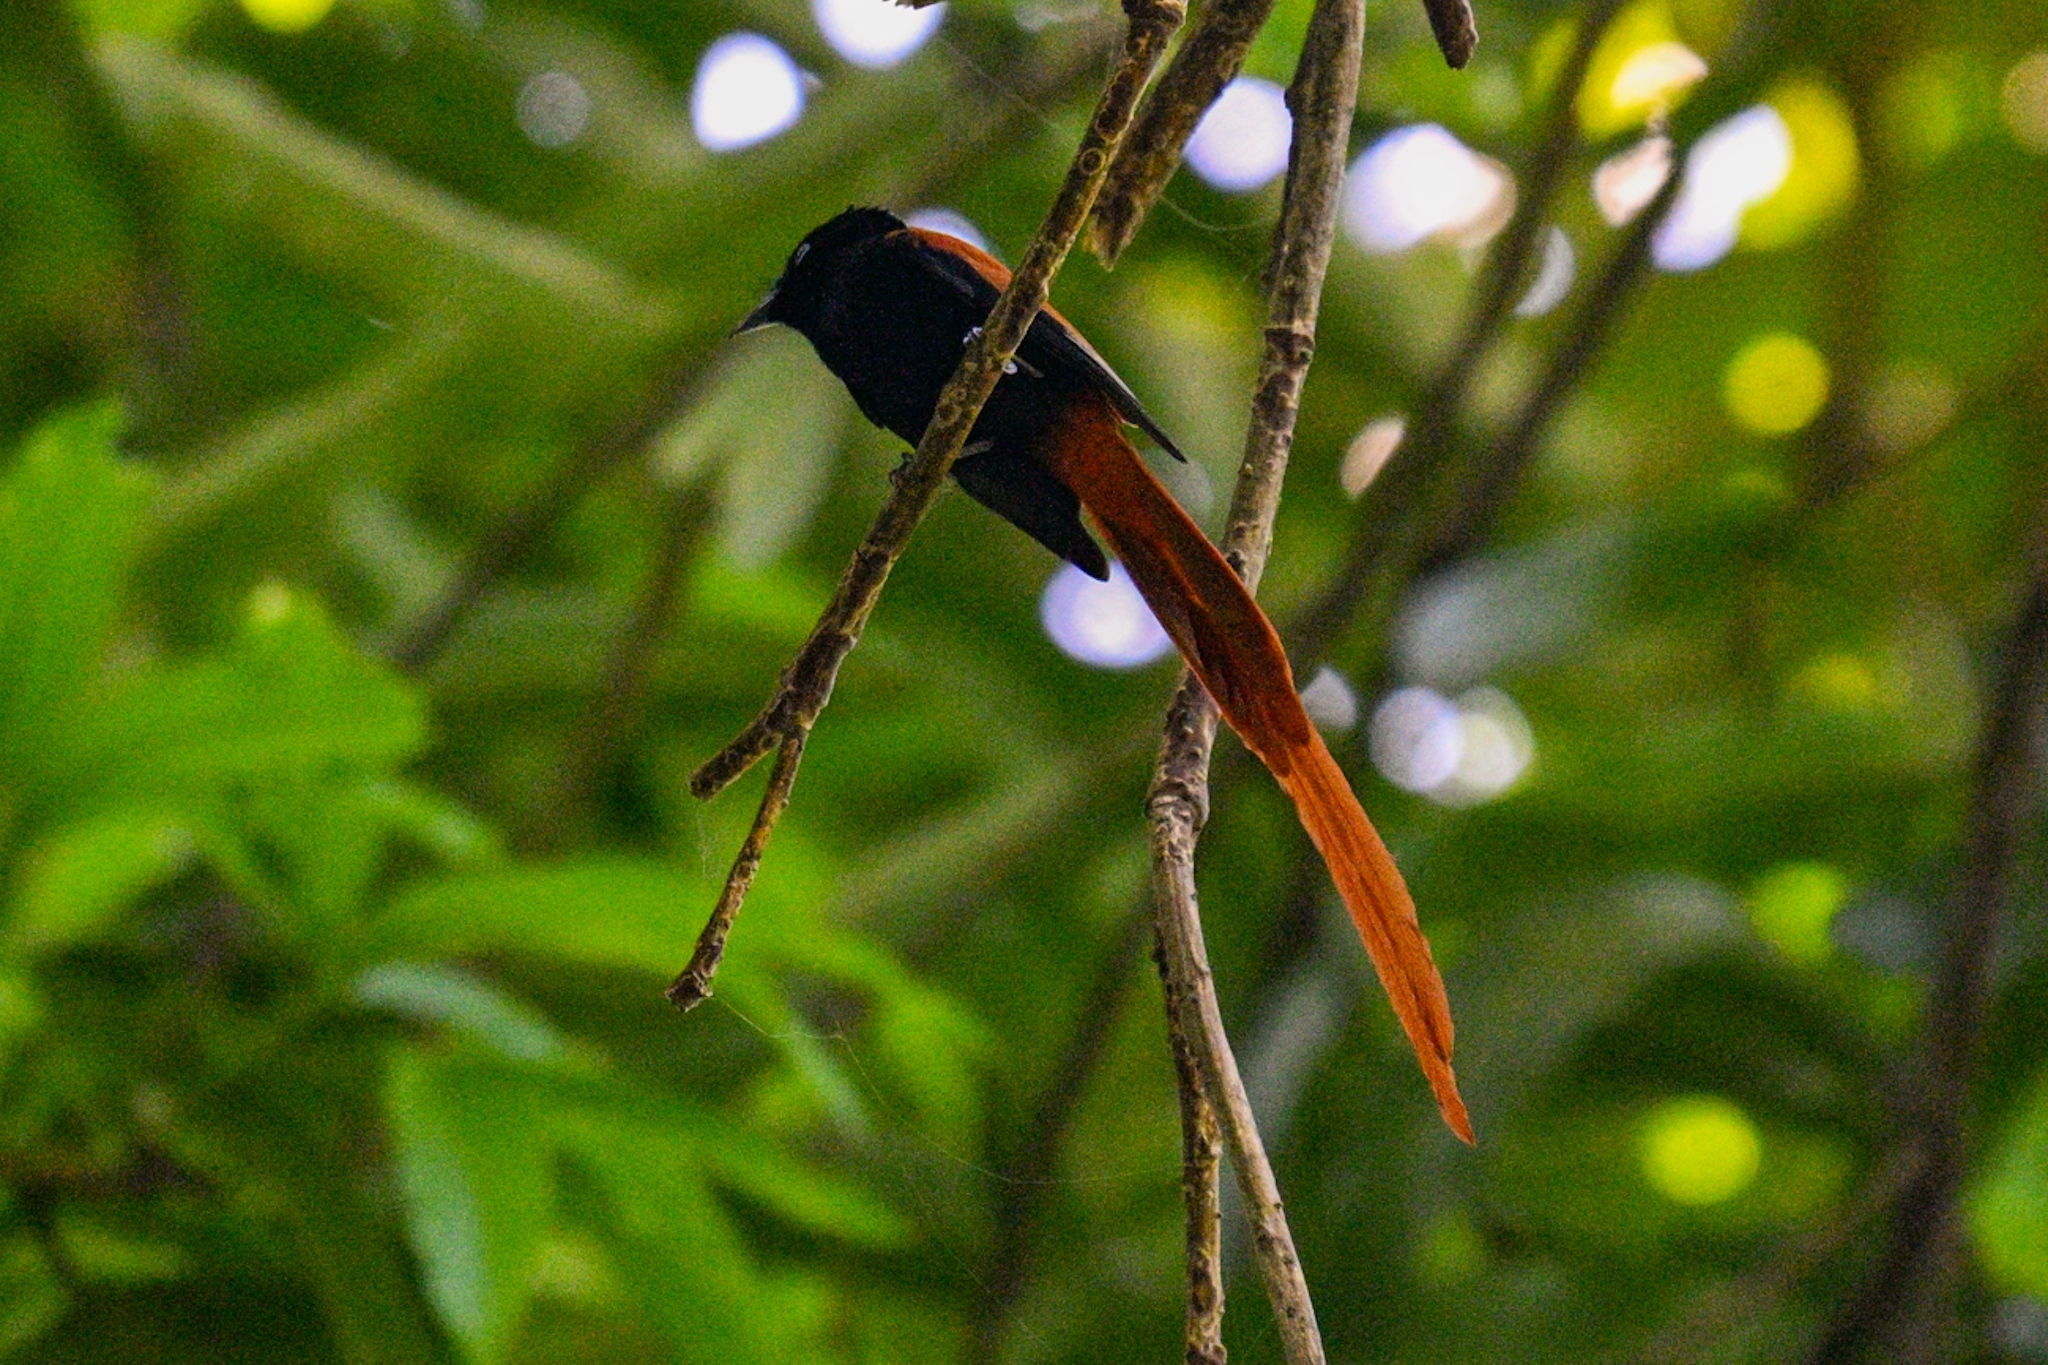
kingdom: Animalia
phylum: Chordata
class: Aves
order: Passeriformes
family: Monarchidae
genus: Terpsiphone
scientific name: Terpsiphone viridis
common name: African paradise flycatcher
